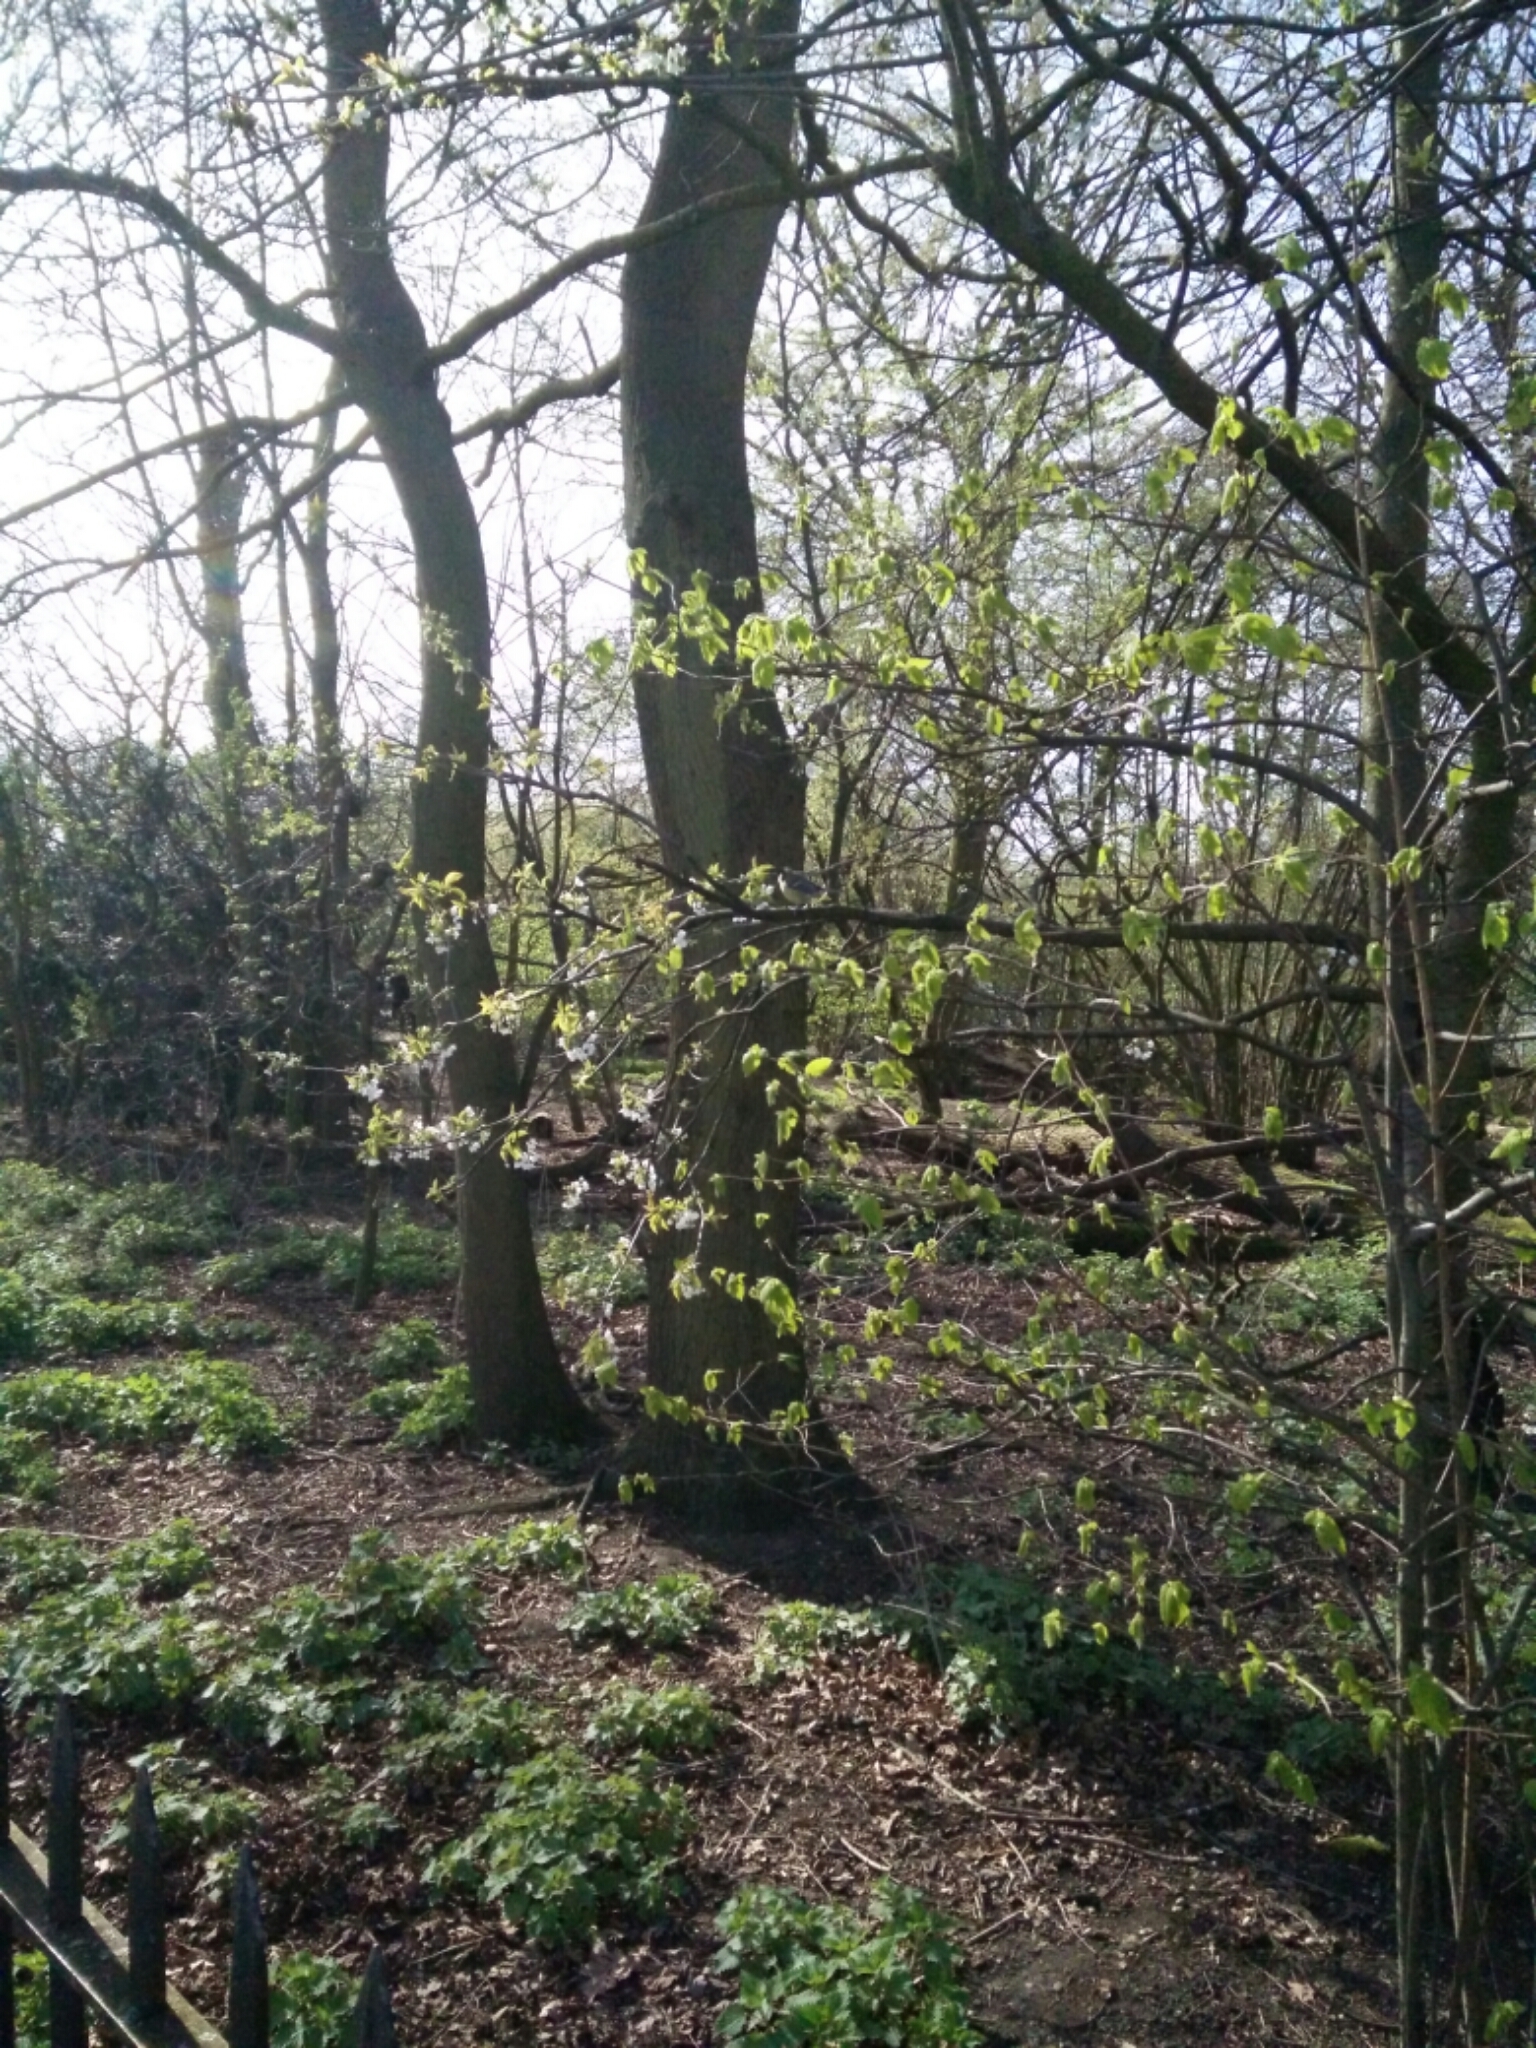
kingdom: Animalia
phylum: Chordata
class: Aves
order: Passeriformes
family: Paridae
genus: Parus
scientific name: Parus major
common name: Great tit
